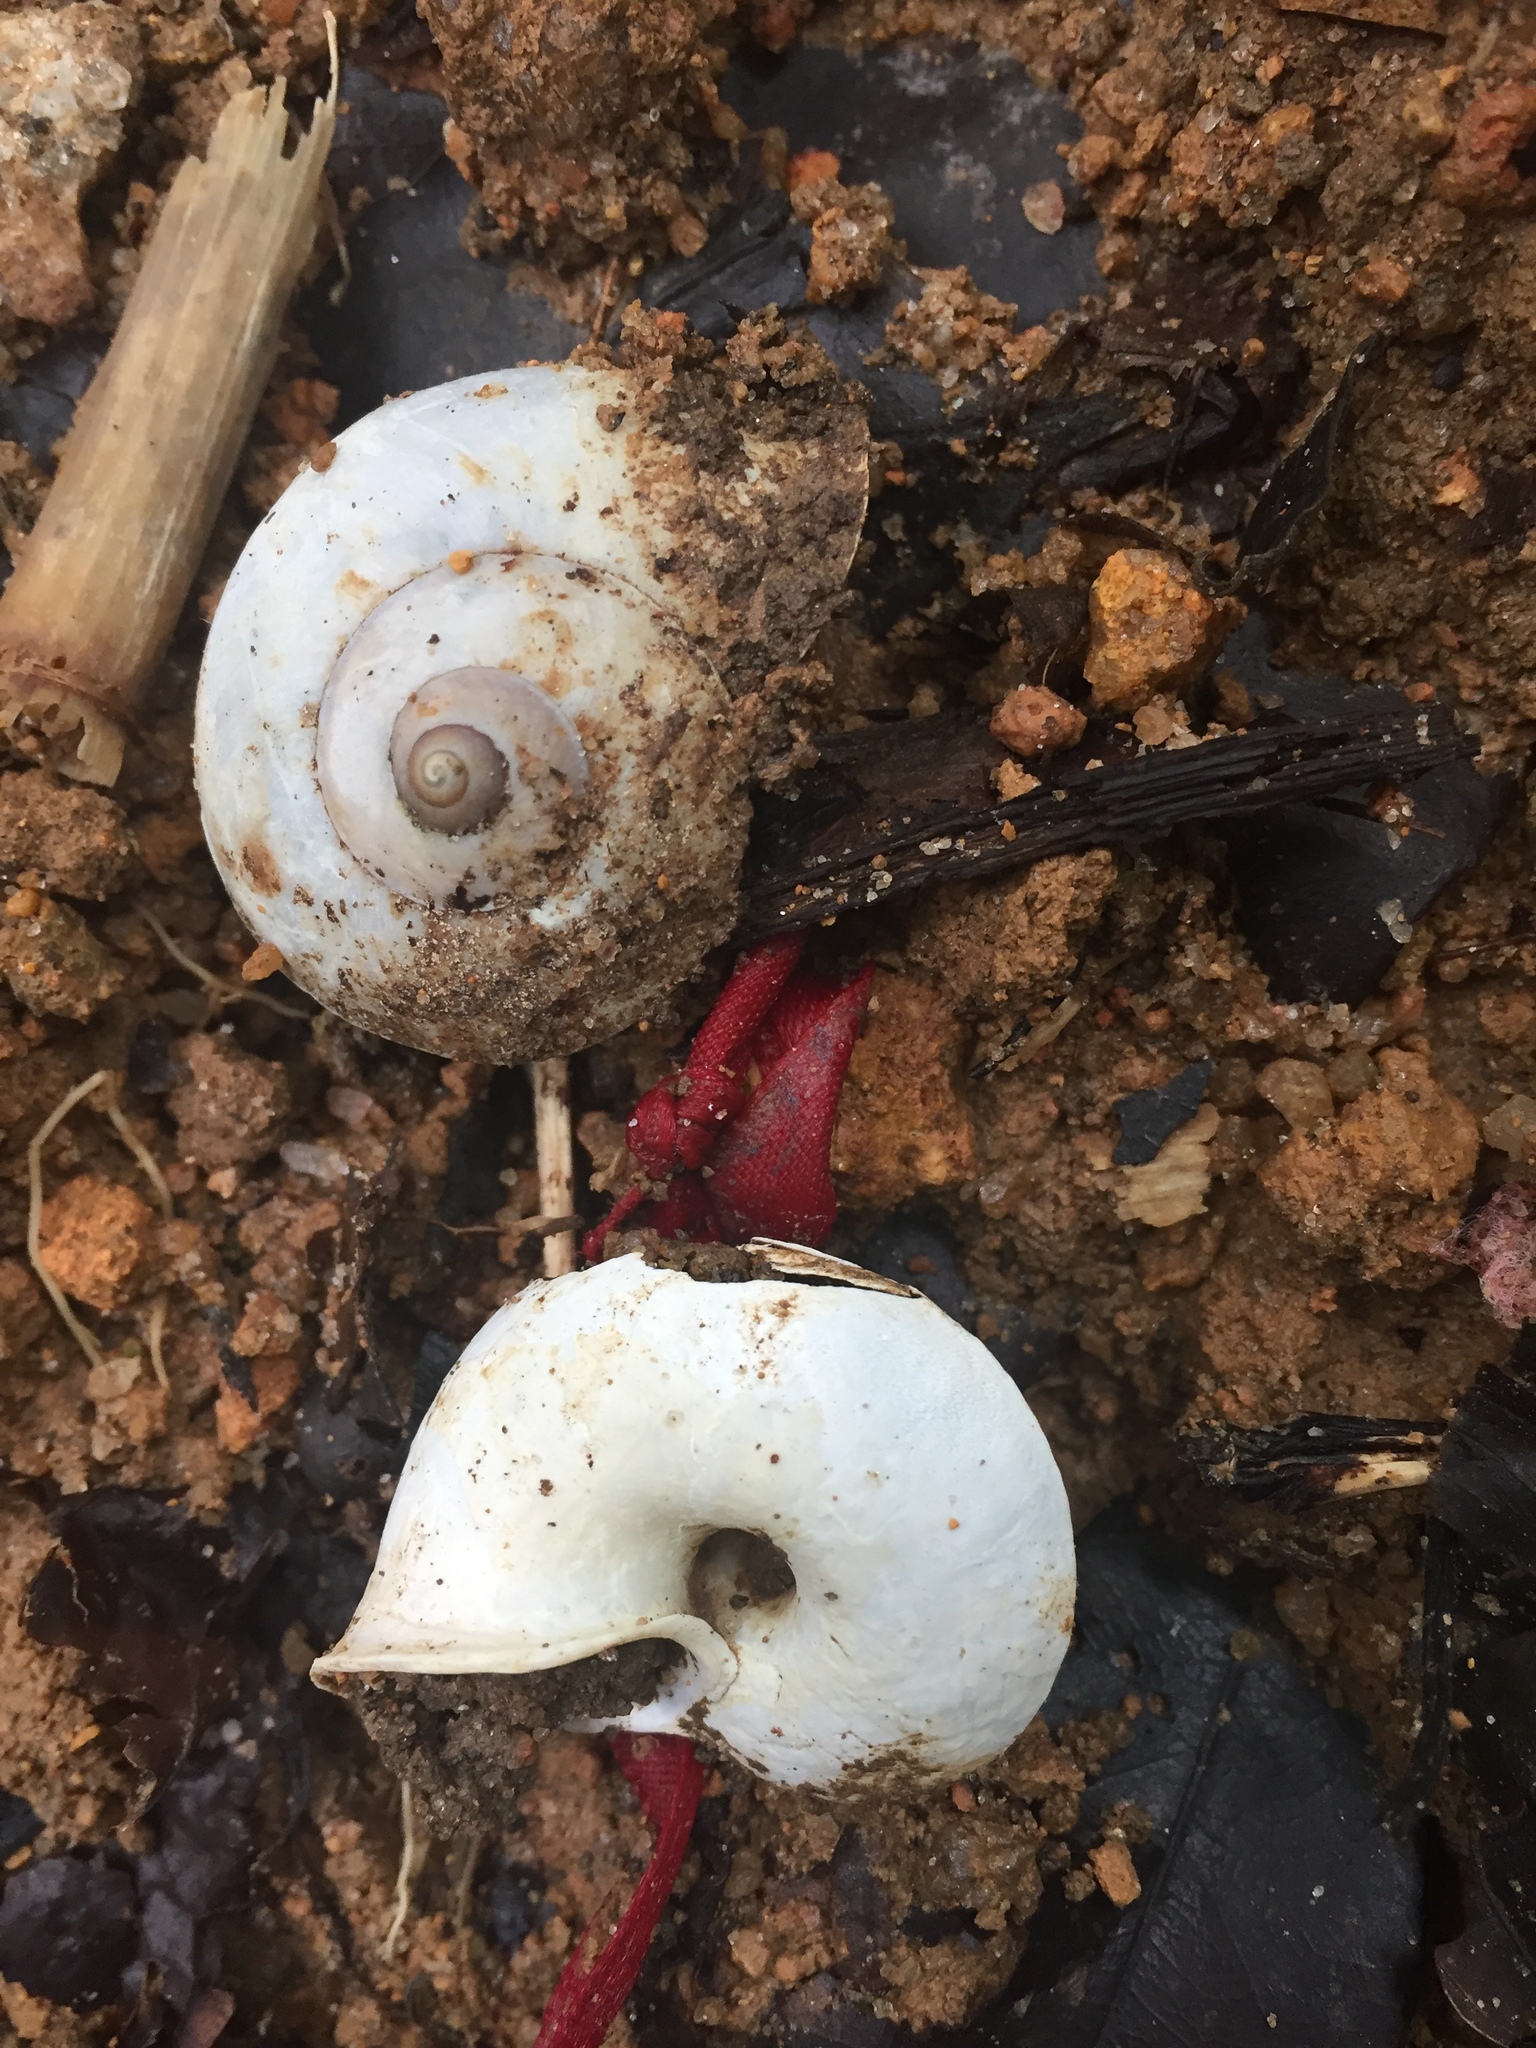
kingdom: Animalia
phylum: Mollusca
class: Gastropoda
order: Architaenioglossa
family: Cyclophoridae
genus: Cyclophorus
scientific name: Cyclophorus perdix
